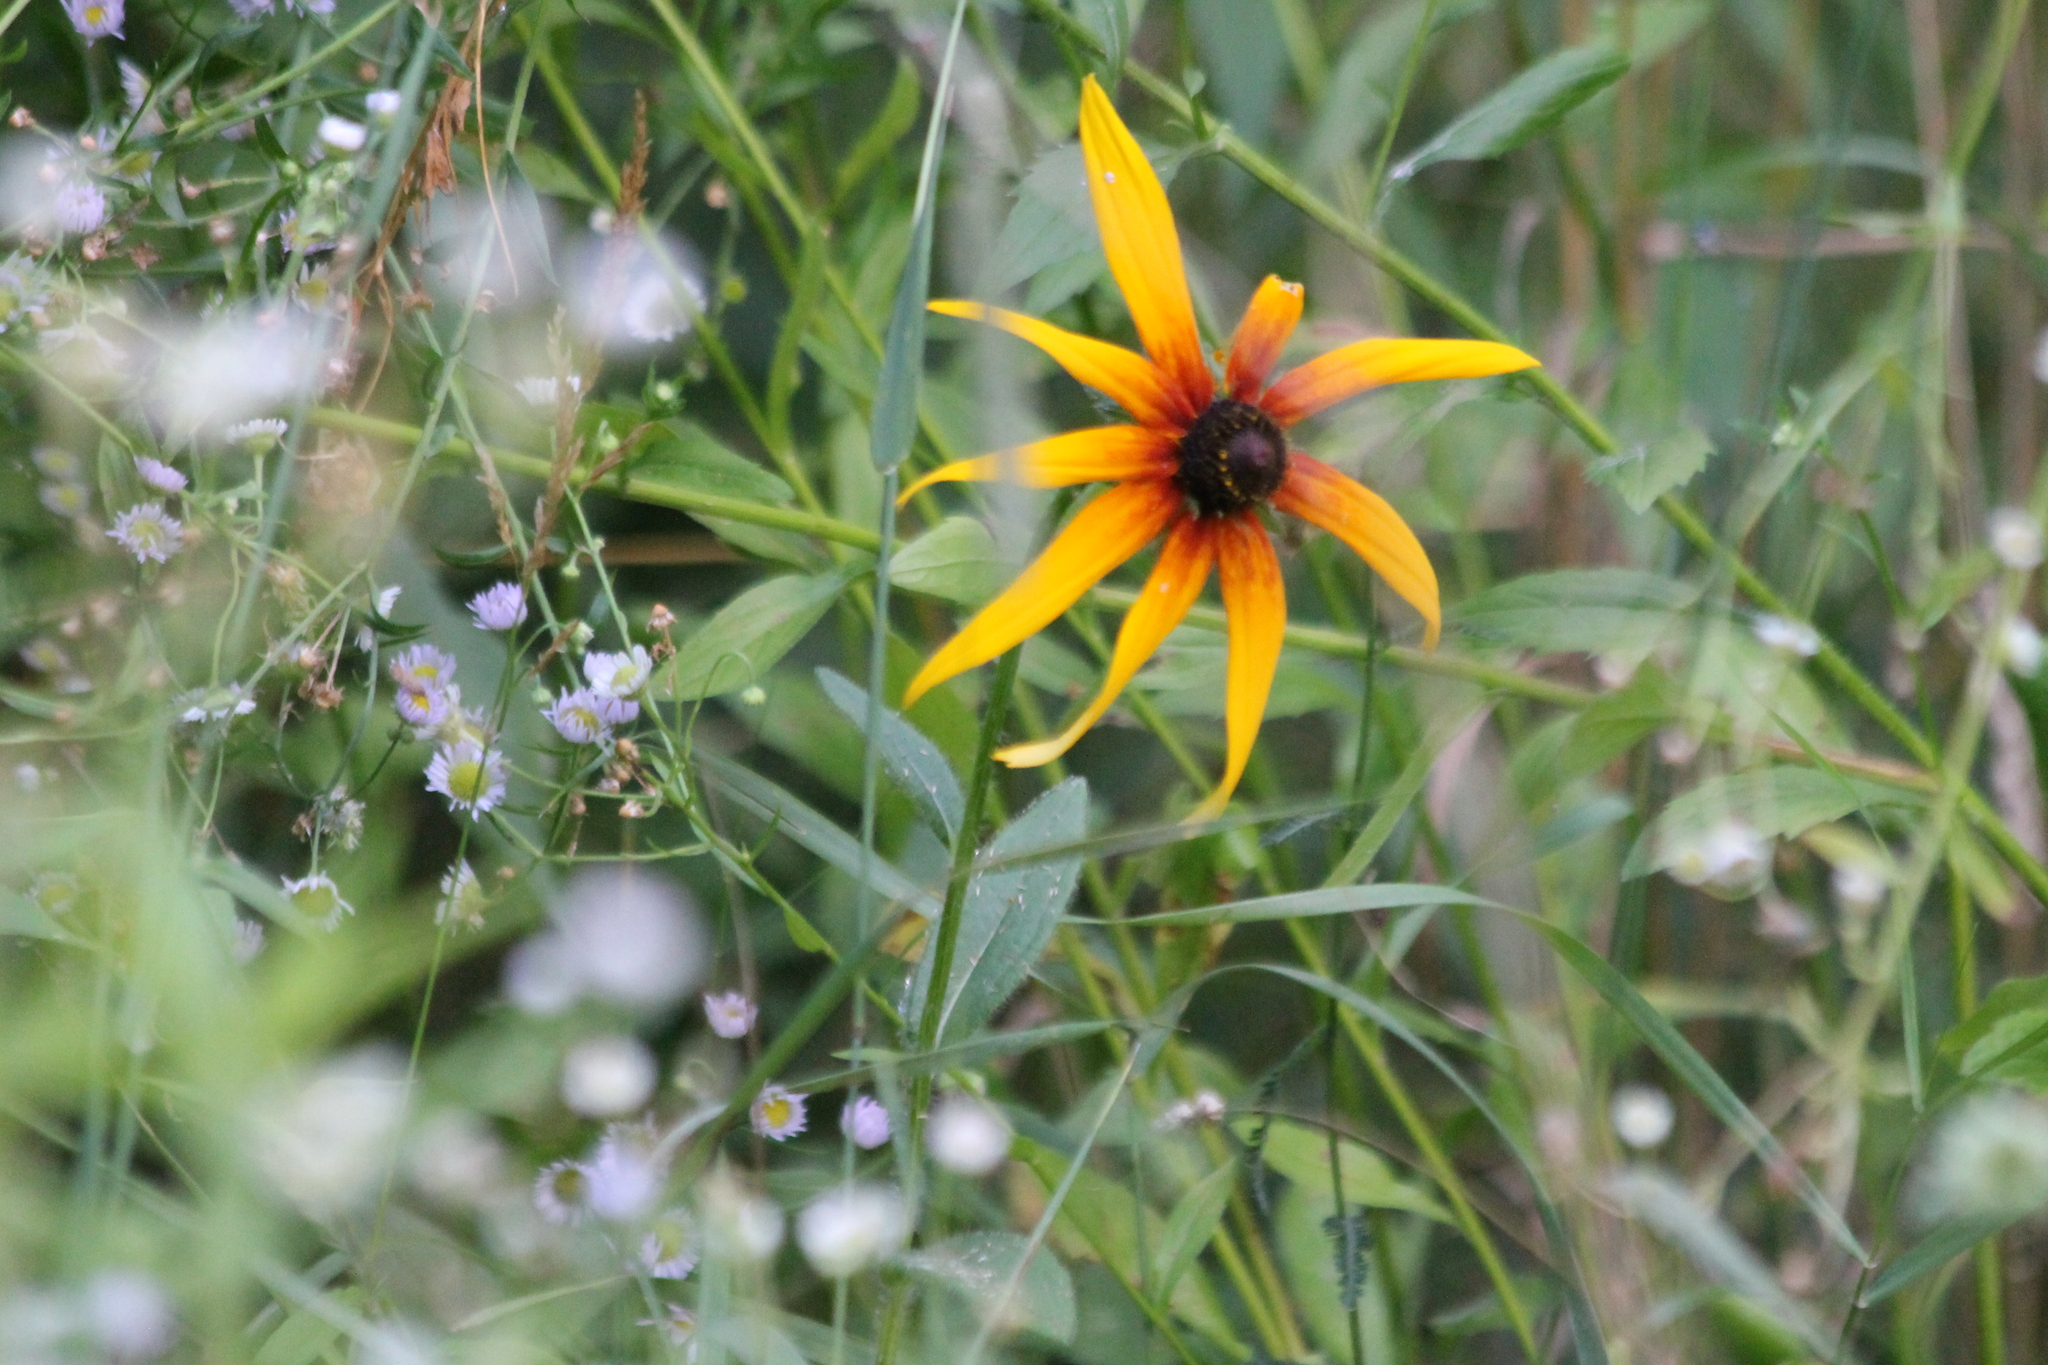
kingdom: Plantae
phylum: Tracheophyta
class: Magnoliopsida
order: Asterales
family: Asteraceae
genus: Rudbeckia
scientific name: Rudbeckia hirta
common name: Black-eyed-susan
